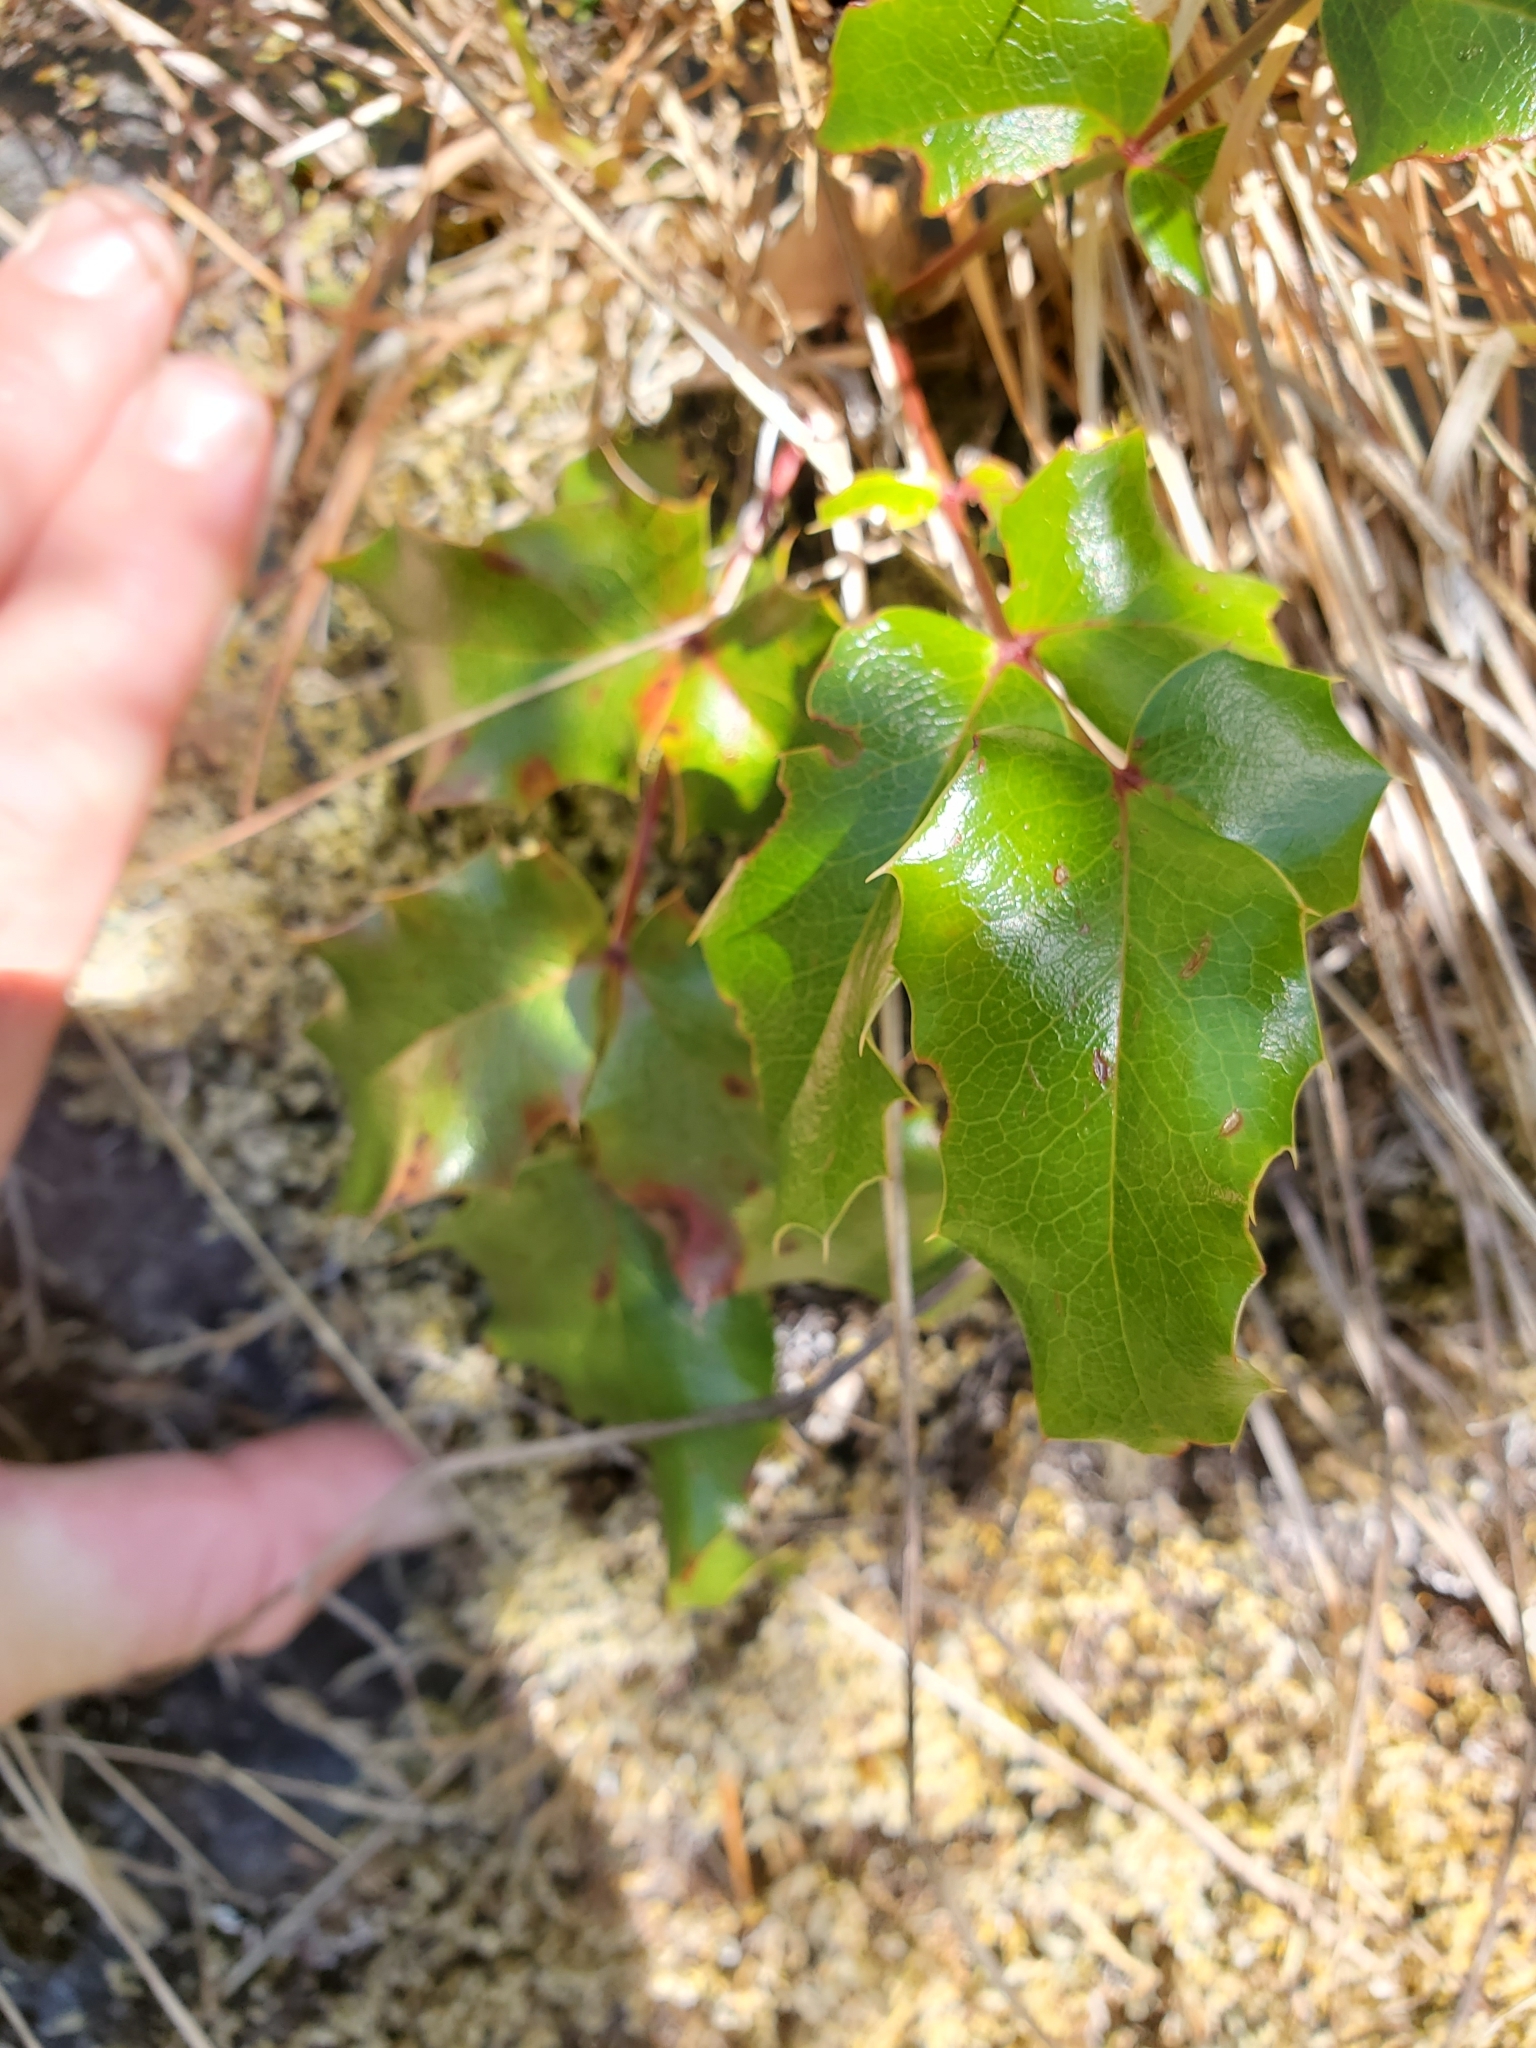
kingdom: Plantae
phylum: Tracheophyta
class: Magnoliopsida
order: Ranunculales
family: Berberidaceae
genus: Mahonia
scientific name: Mahonia aquifolium
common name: Oregon-grape
